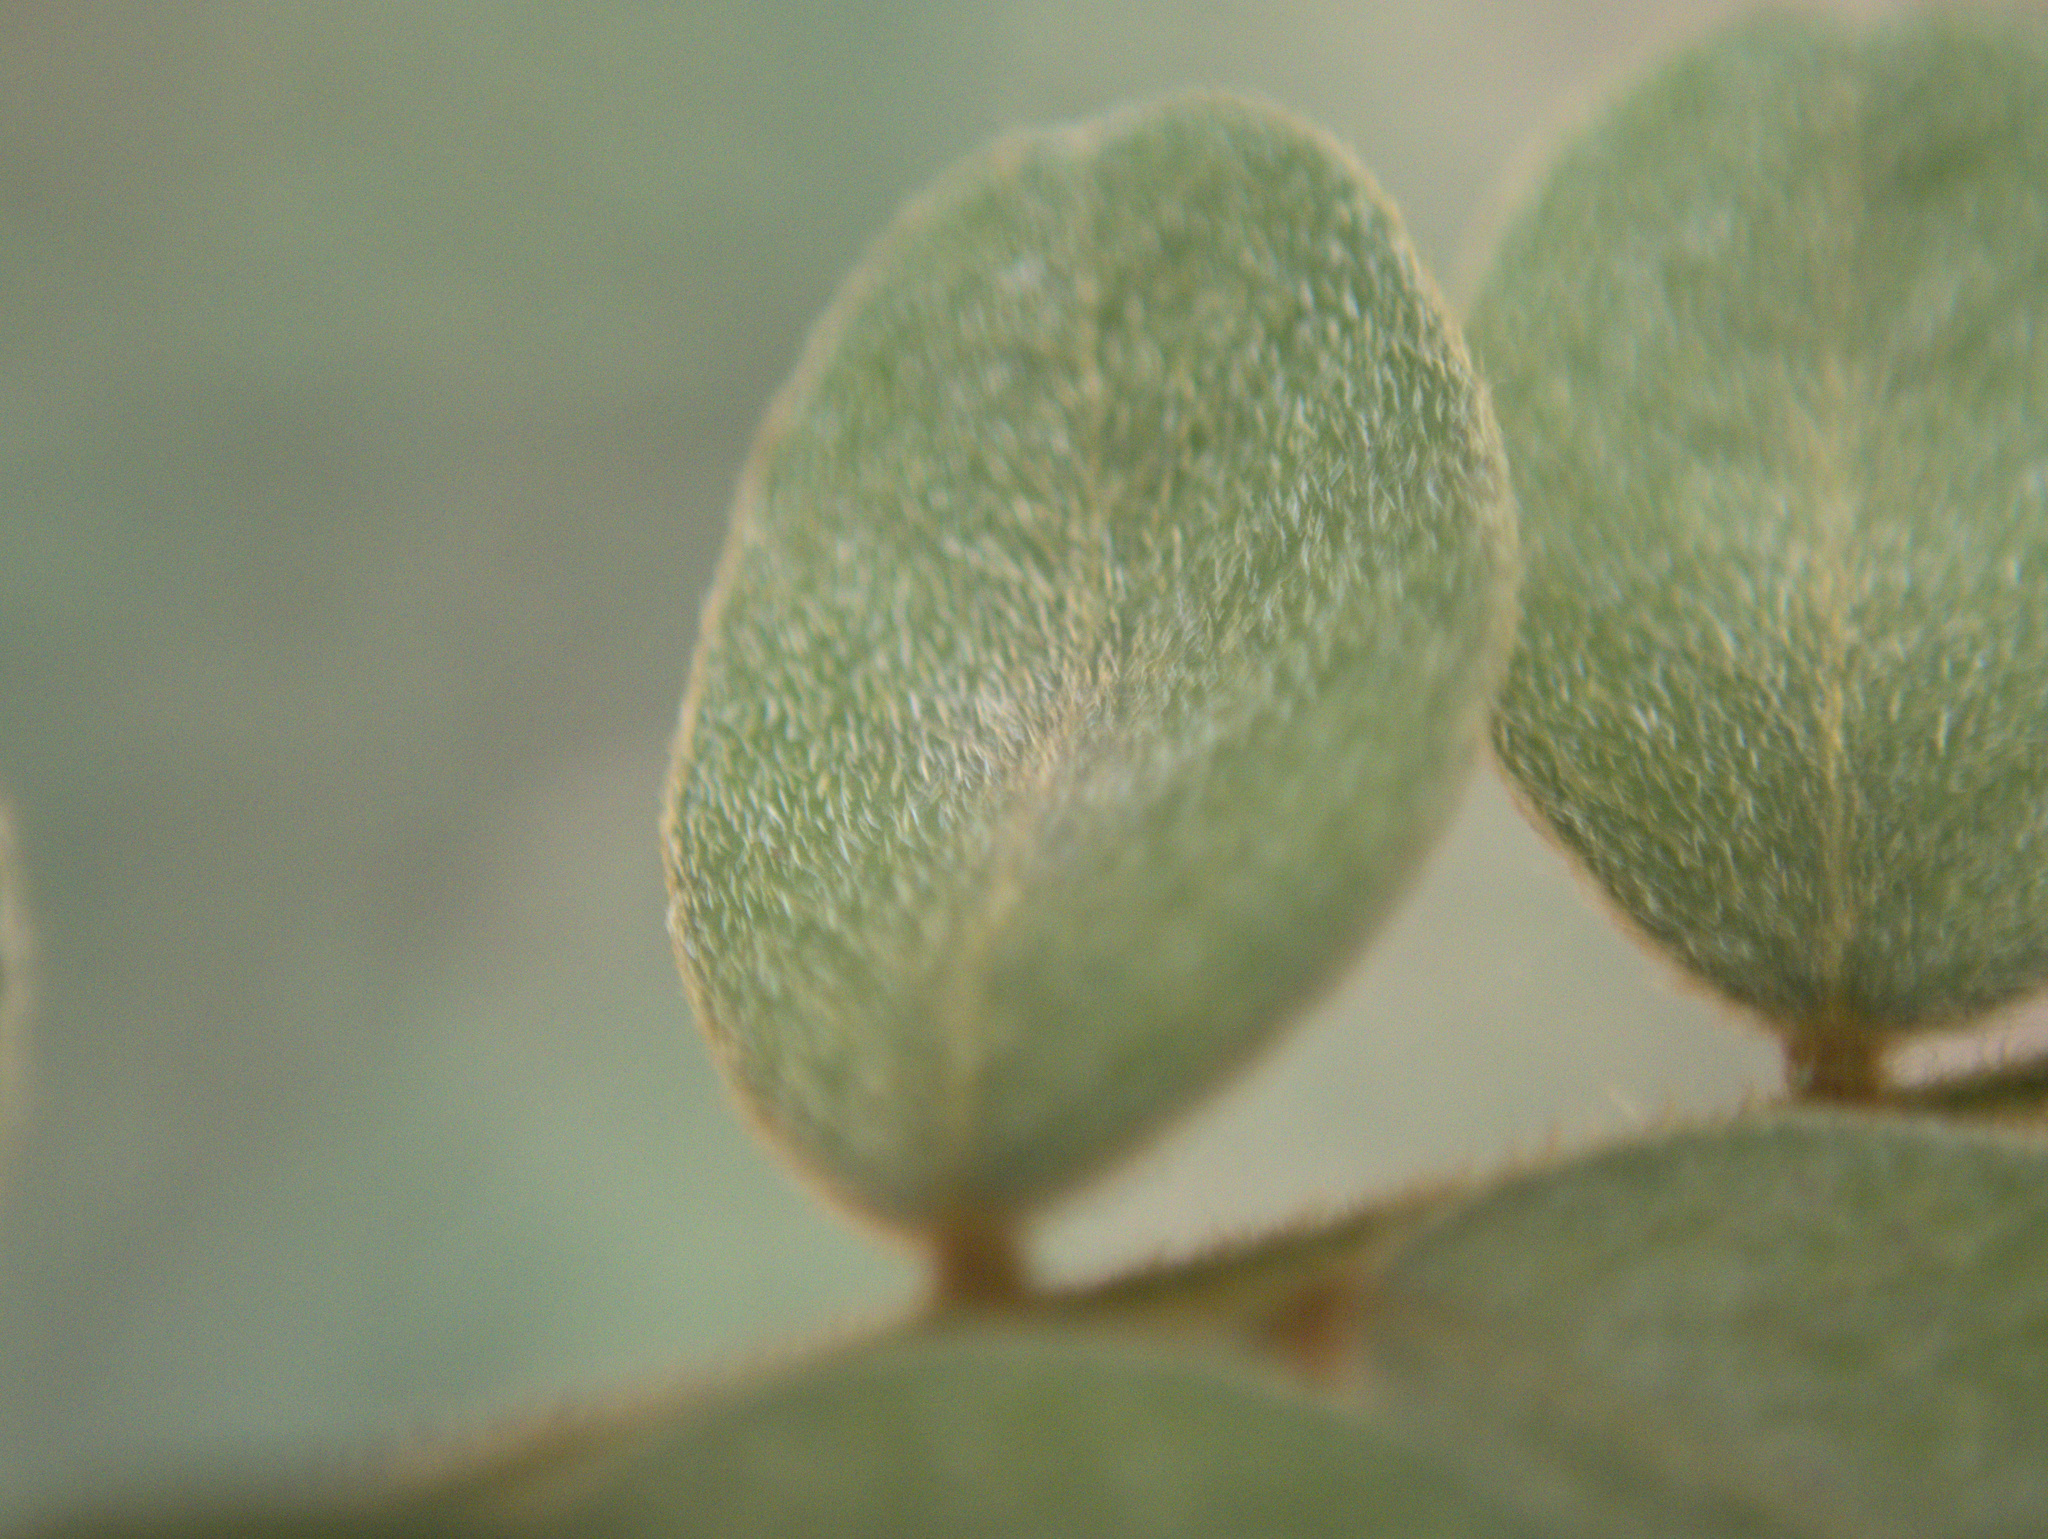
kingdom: Plantae
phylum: Tracheophyta
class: Magnoliopsida
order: Fabales
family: Fabaceae
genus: Sophora
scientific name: Sophora chathamica
